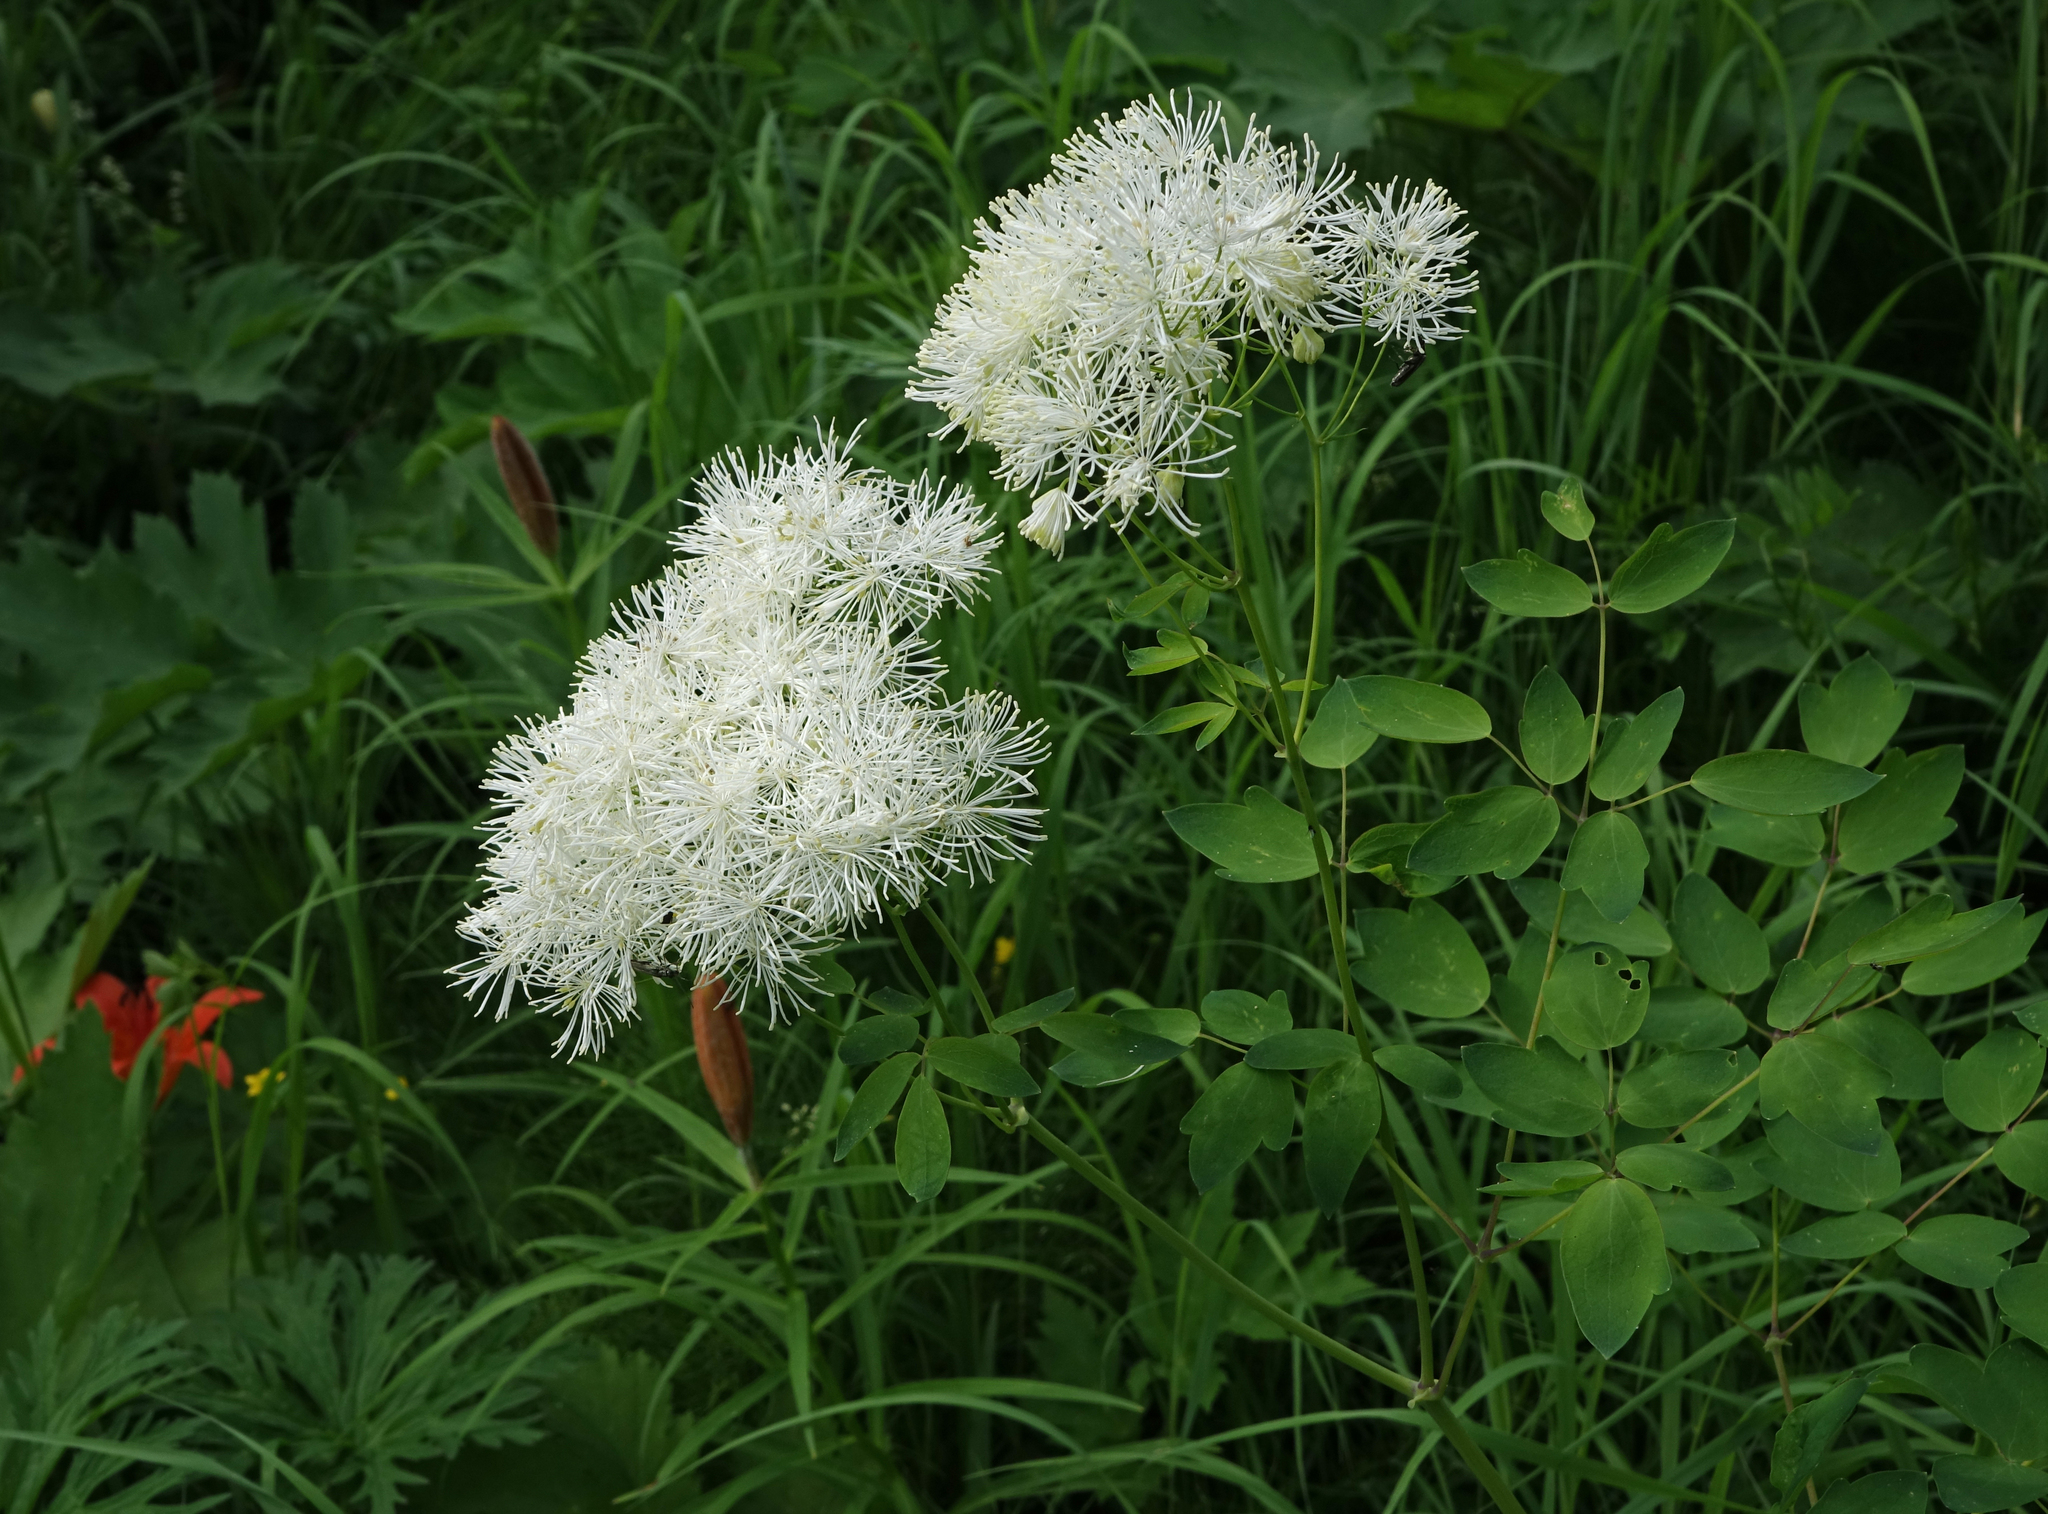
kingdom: Plantae
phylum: Tracheophyta
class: Magnoliopsida
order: Ranunculales
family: Ranunculaceae
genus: Thalictrum
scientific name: Thalictrum aquilegiifolium
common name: French meadow-rue
